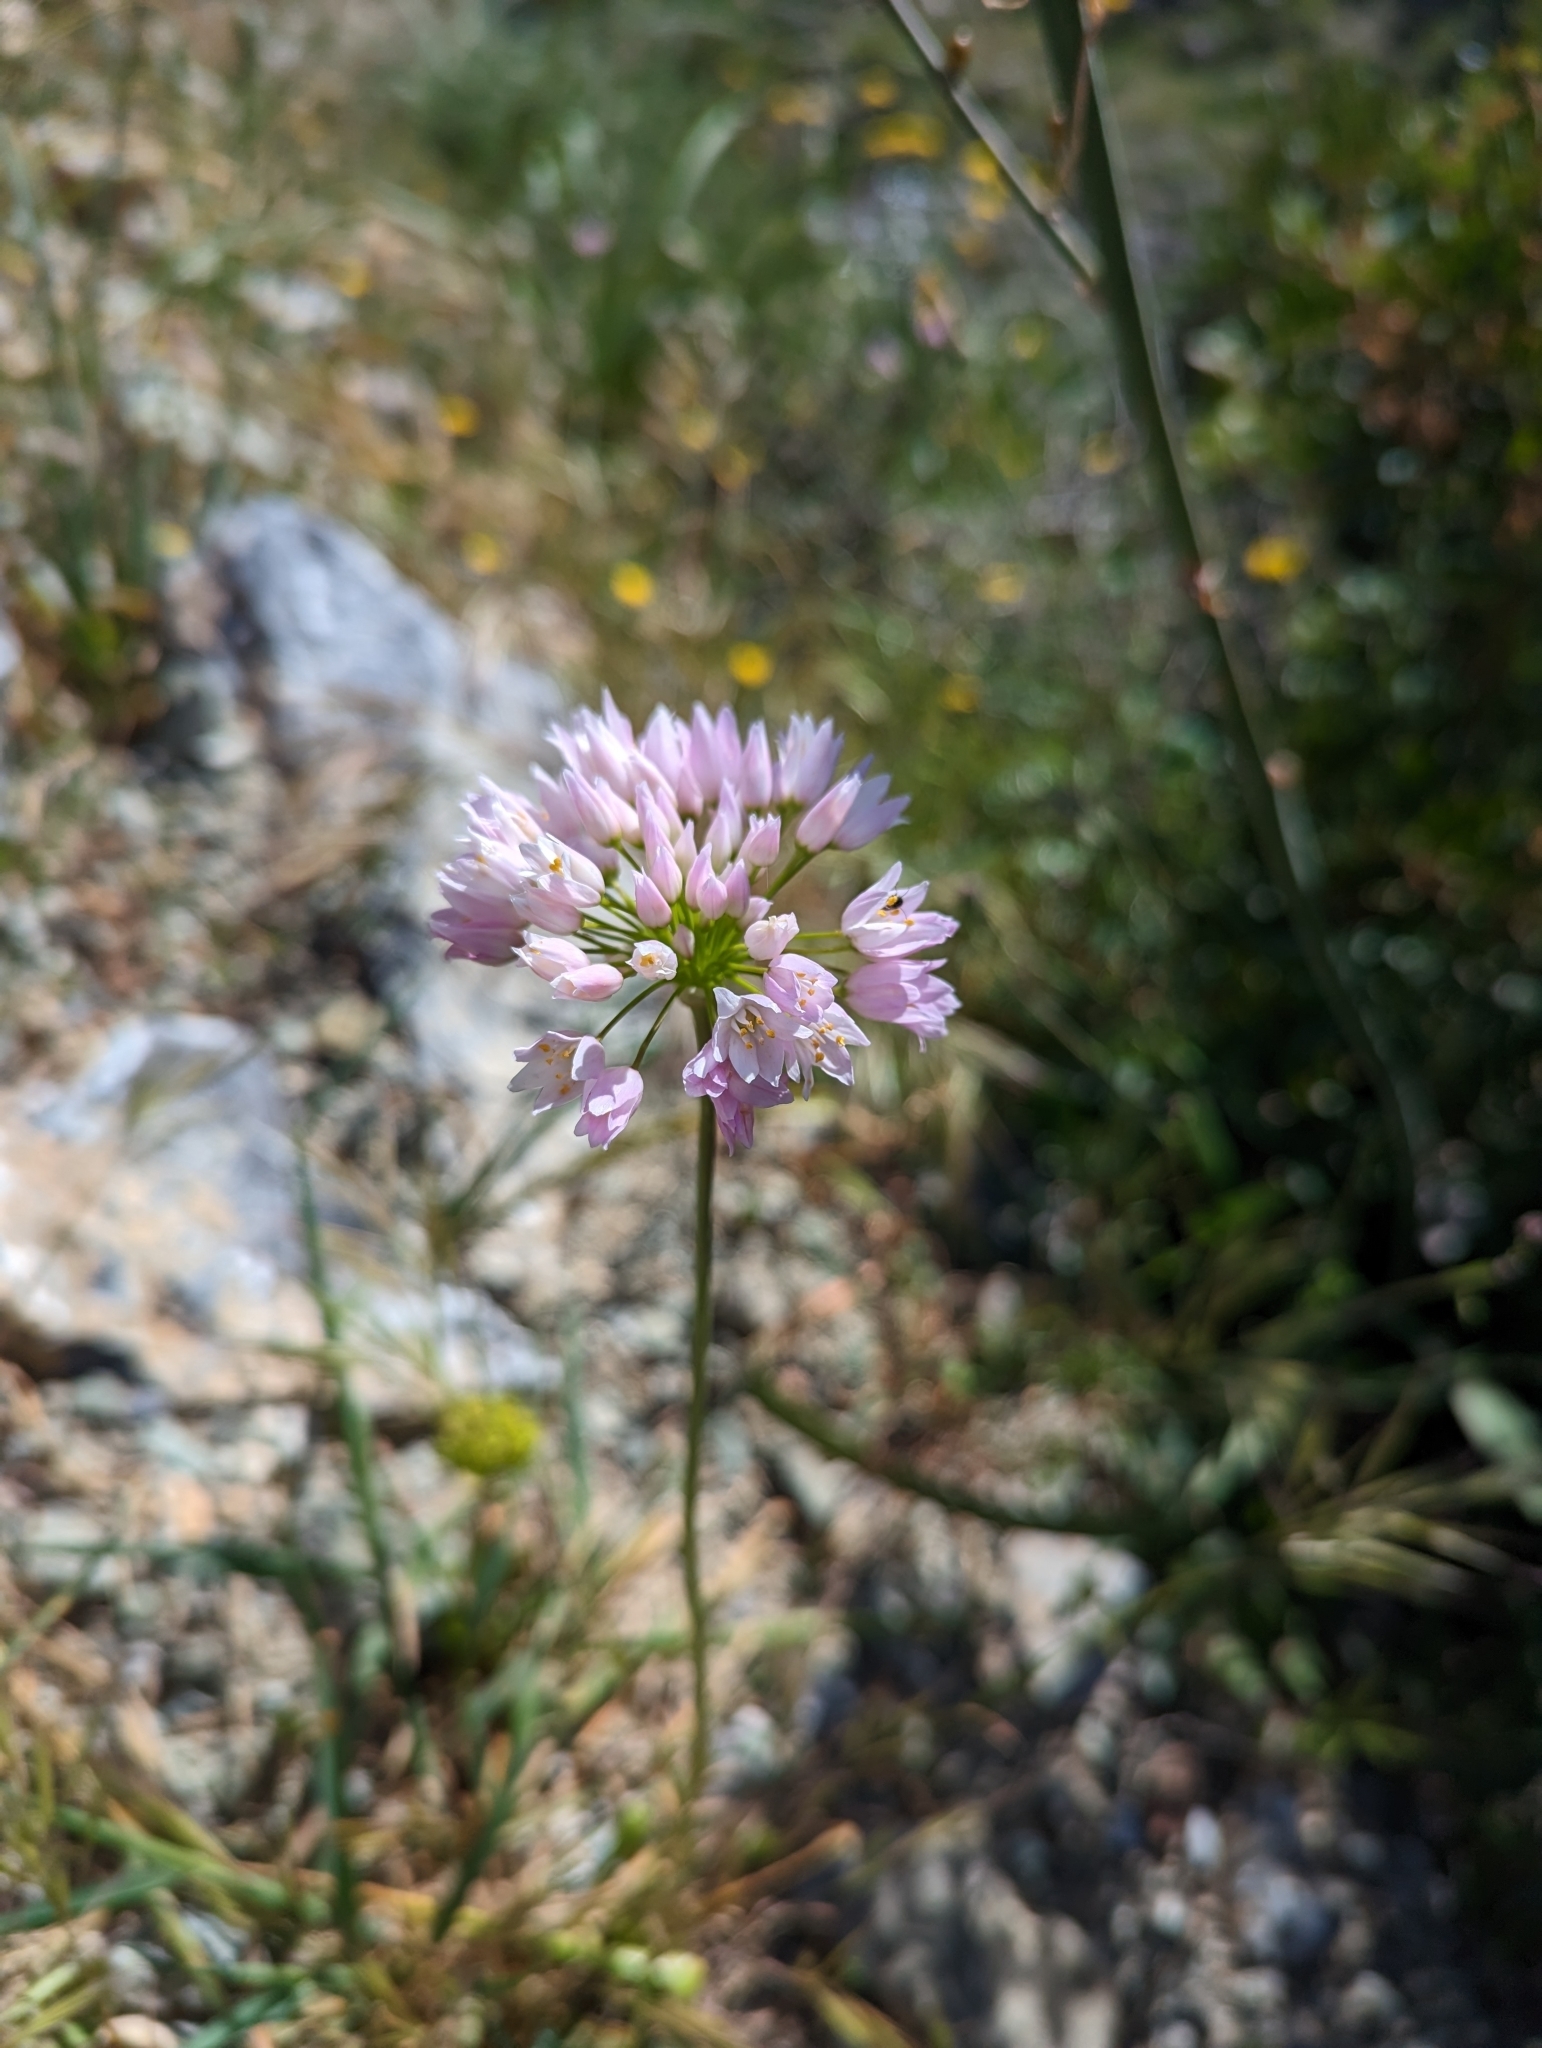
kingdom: Plantae
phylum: Tracheophyta
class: Liliopsida
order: Asparagales
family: Amaryllidaceae
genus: Allium
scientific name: Allium roseum
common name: Rosy garlic
